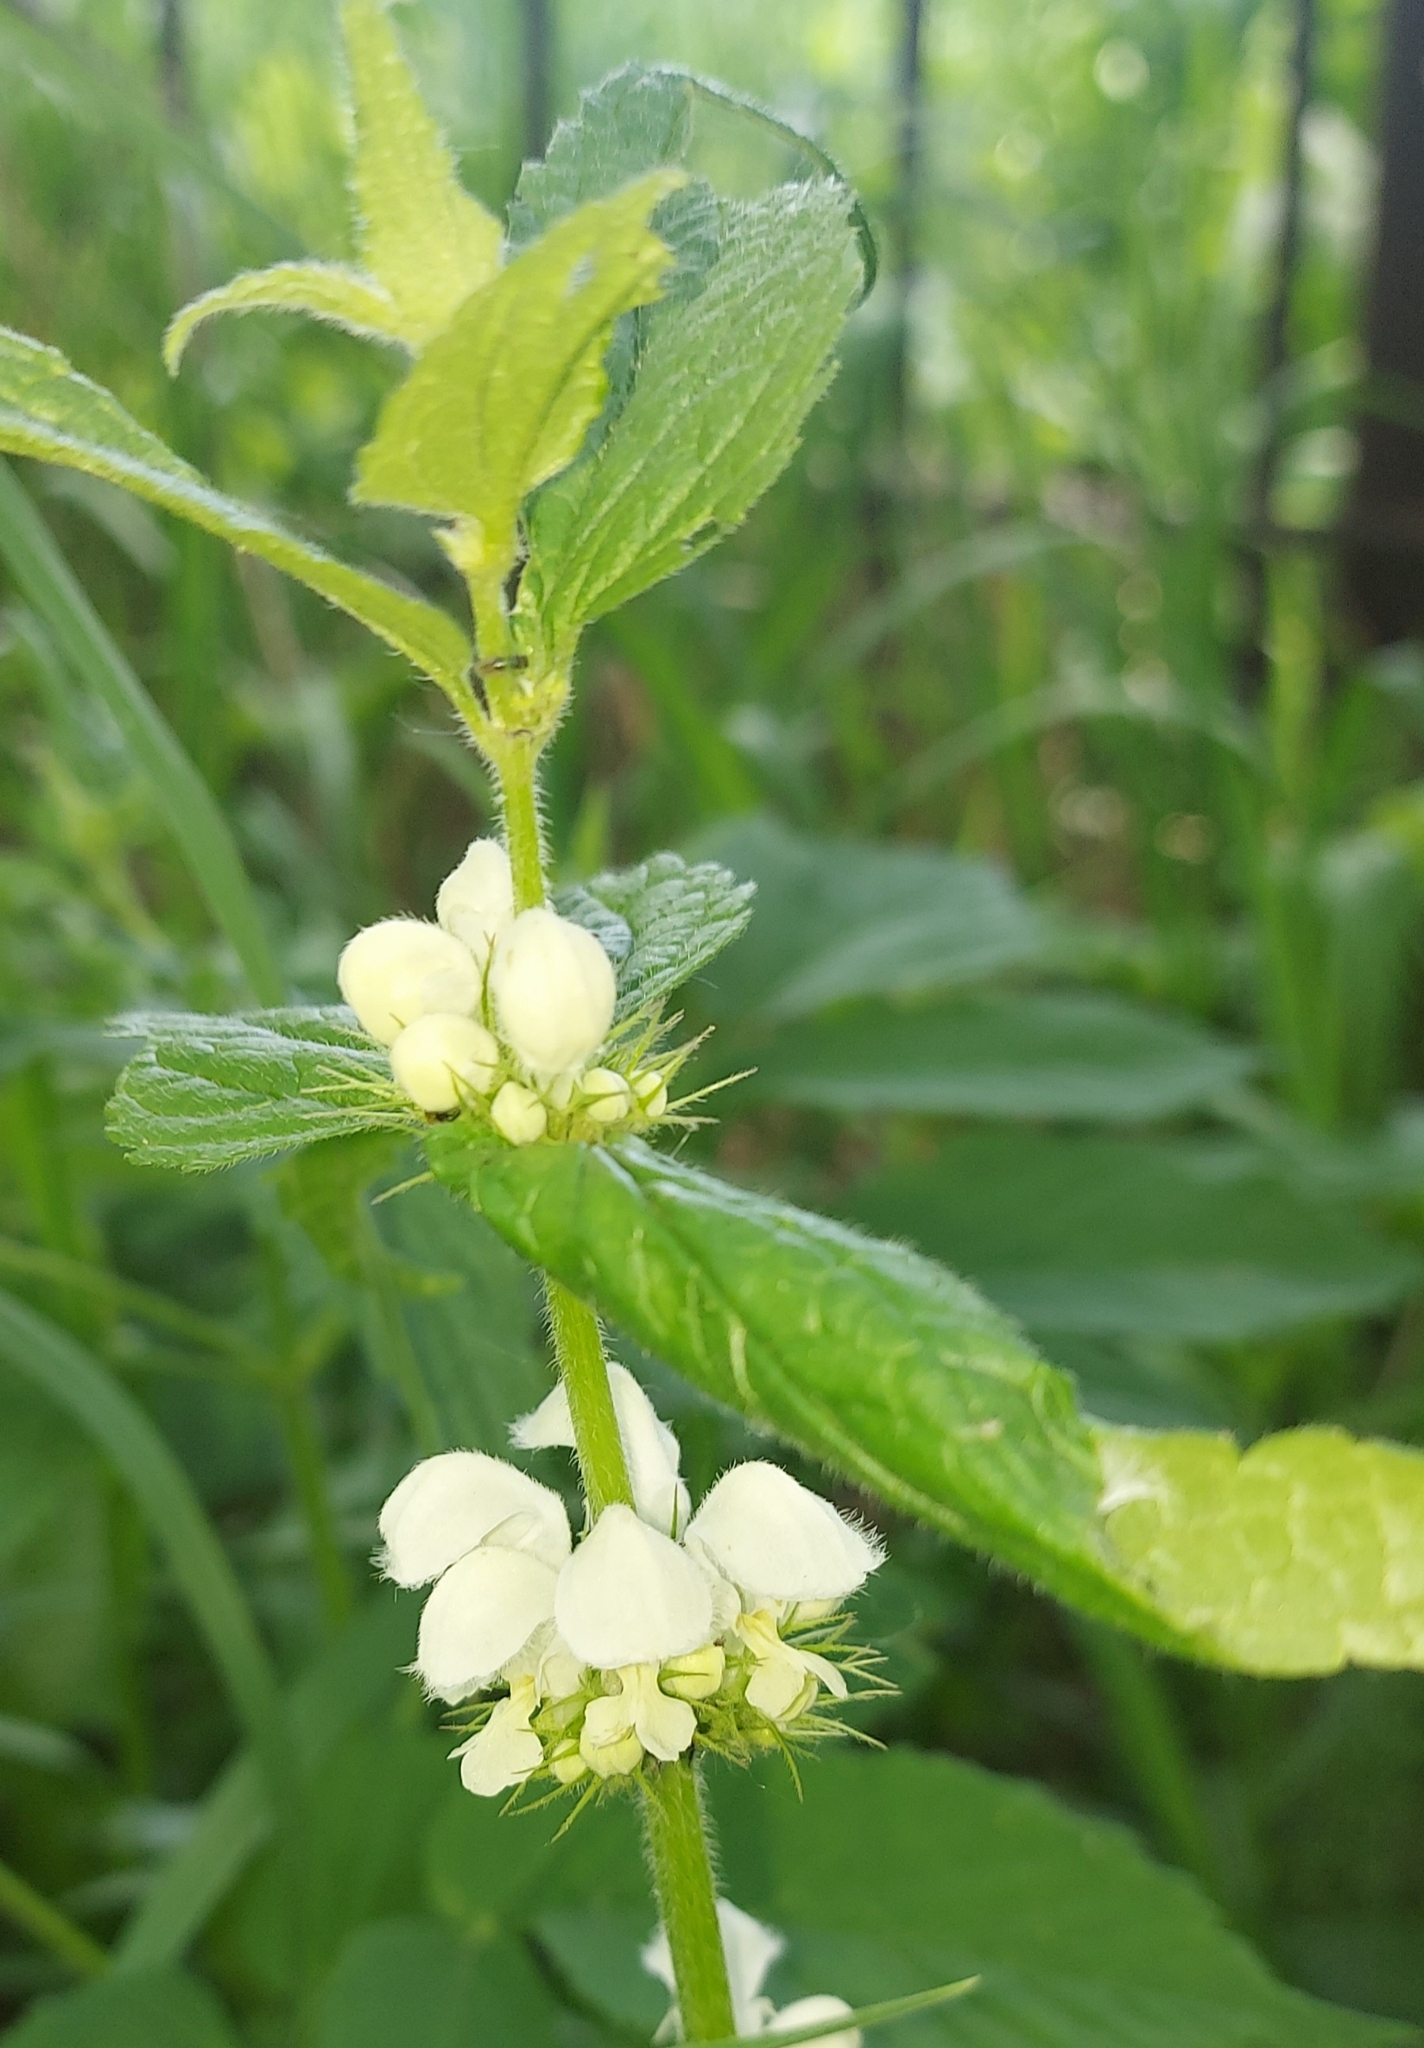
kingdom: Plantae
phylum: Tracheophyta
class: Magnoliopsida
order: Lamiales
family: Lamiaceae
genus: Lamium
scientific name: Lamium album
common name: White dead-nettle
